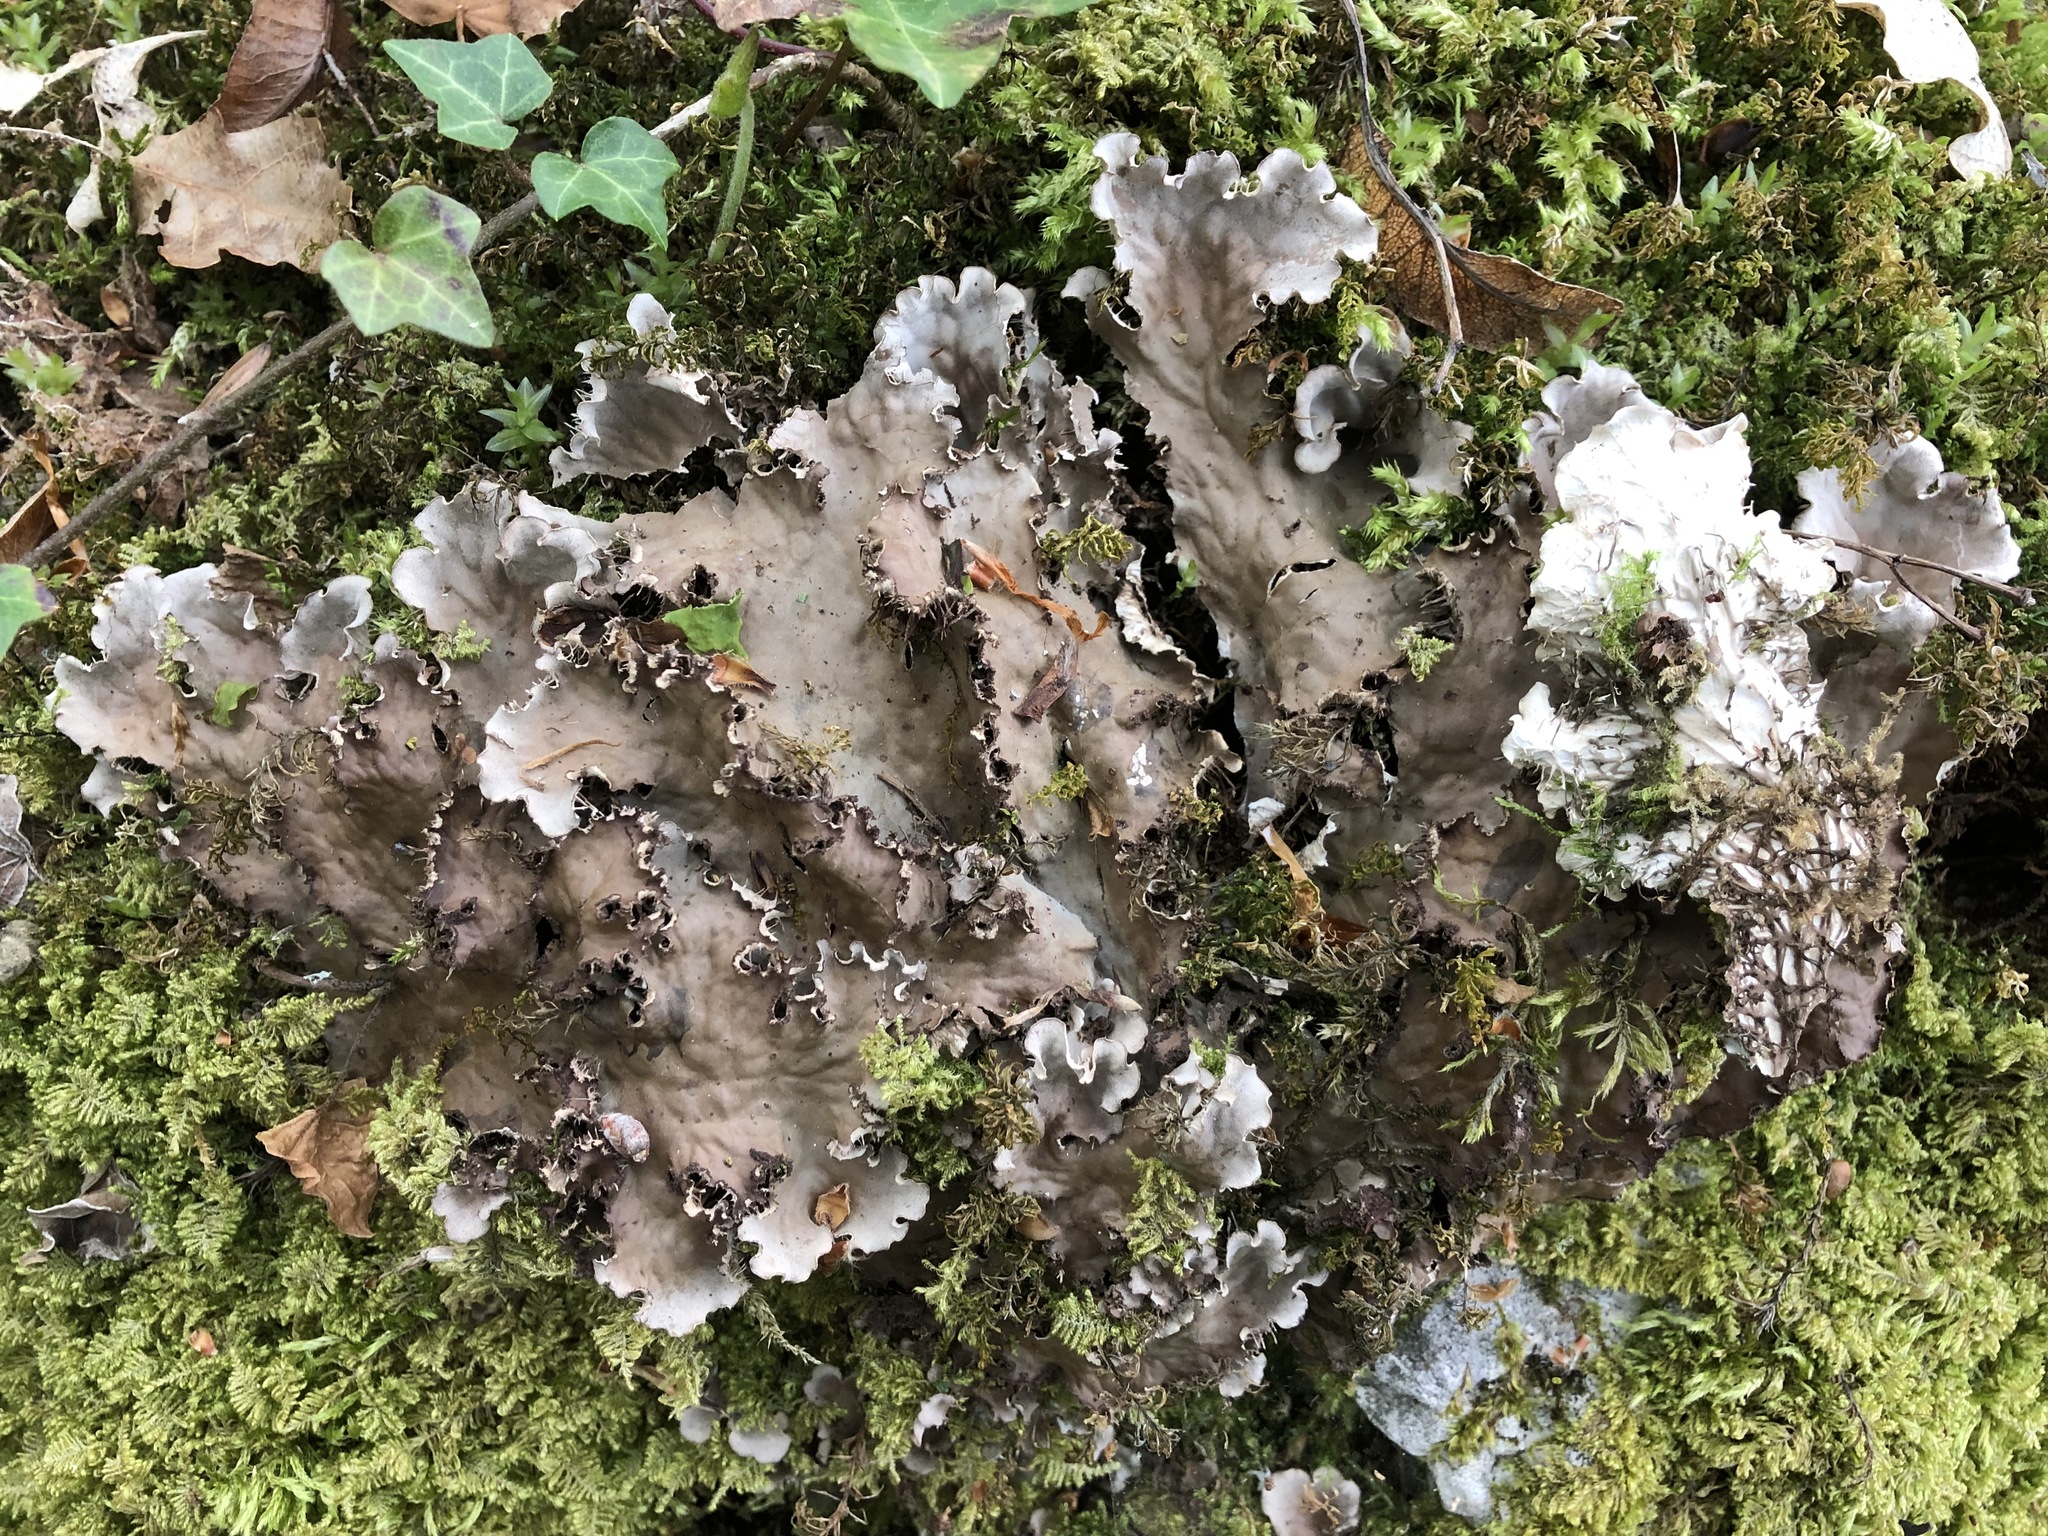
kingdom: Fungi
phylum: Ascomycota
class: Lecanoromycetes
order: Peltigerales
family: Peltigeraceae
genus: Peltigera
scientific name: Peltigera praetextata
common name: Scaly dog-lichen
